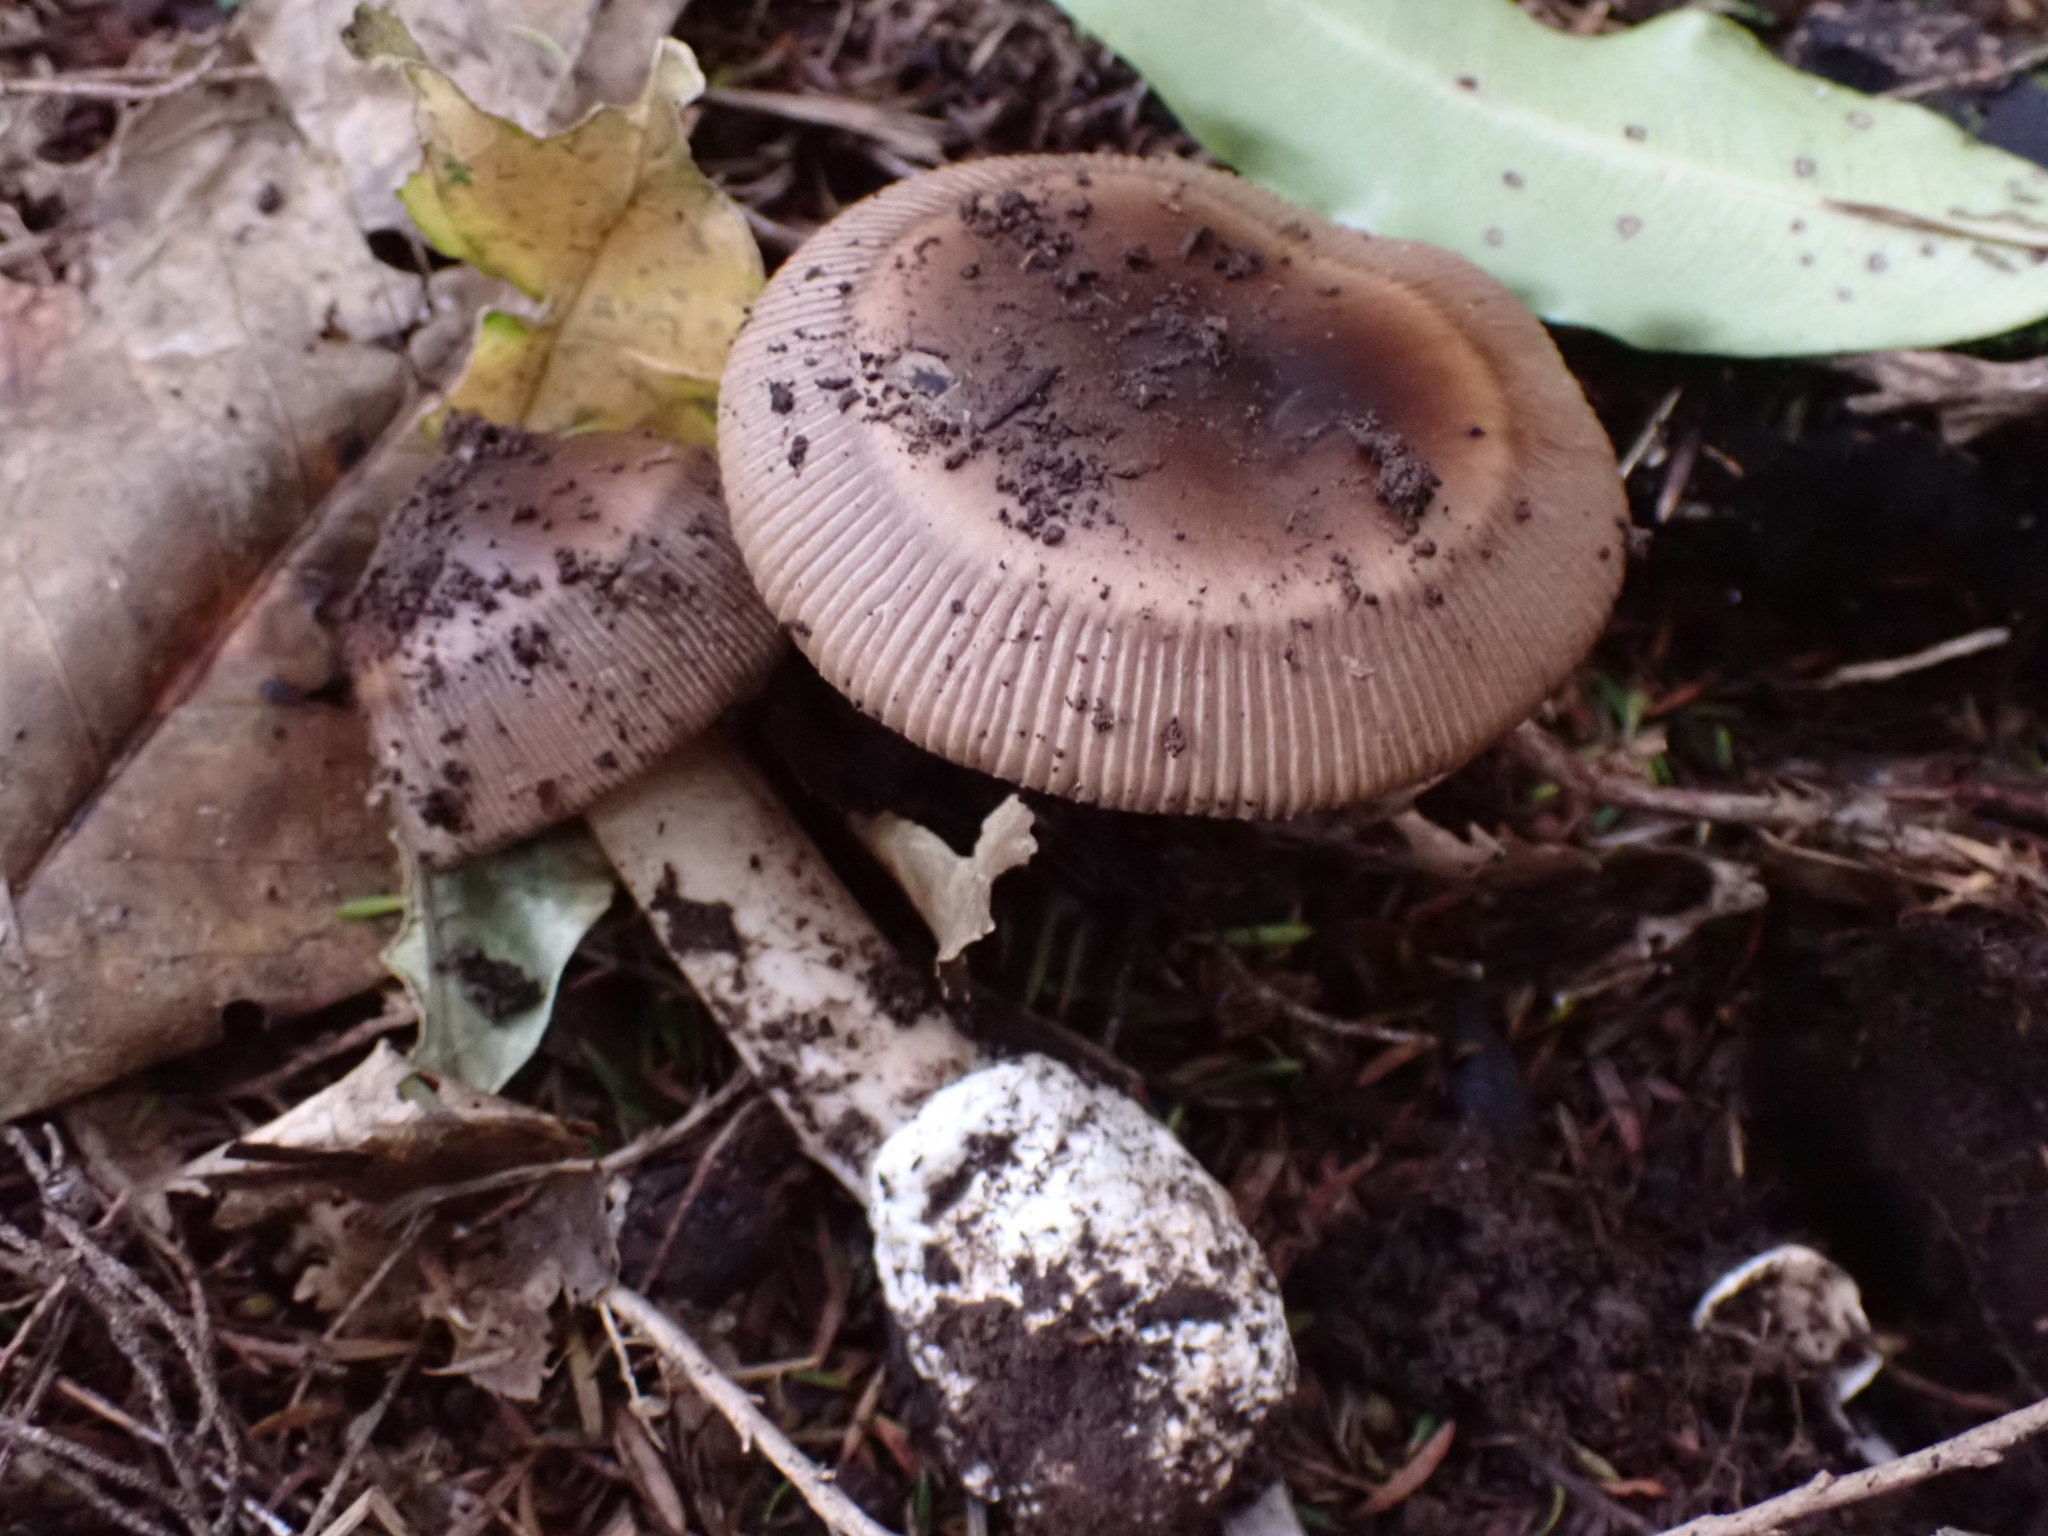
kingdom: Fungi
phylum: Basidiomycota
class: Agaricomycetes
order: Agaricales
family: Amanitaceae
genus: Amanita
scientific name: Amanita pekeoides
